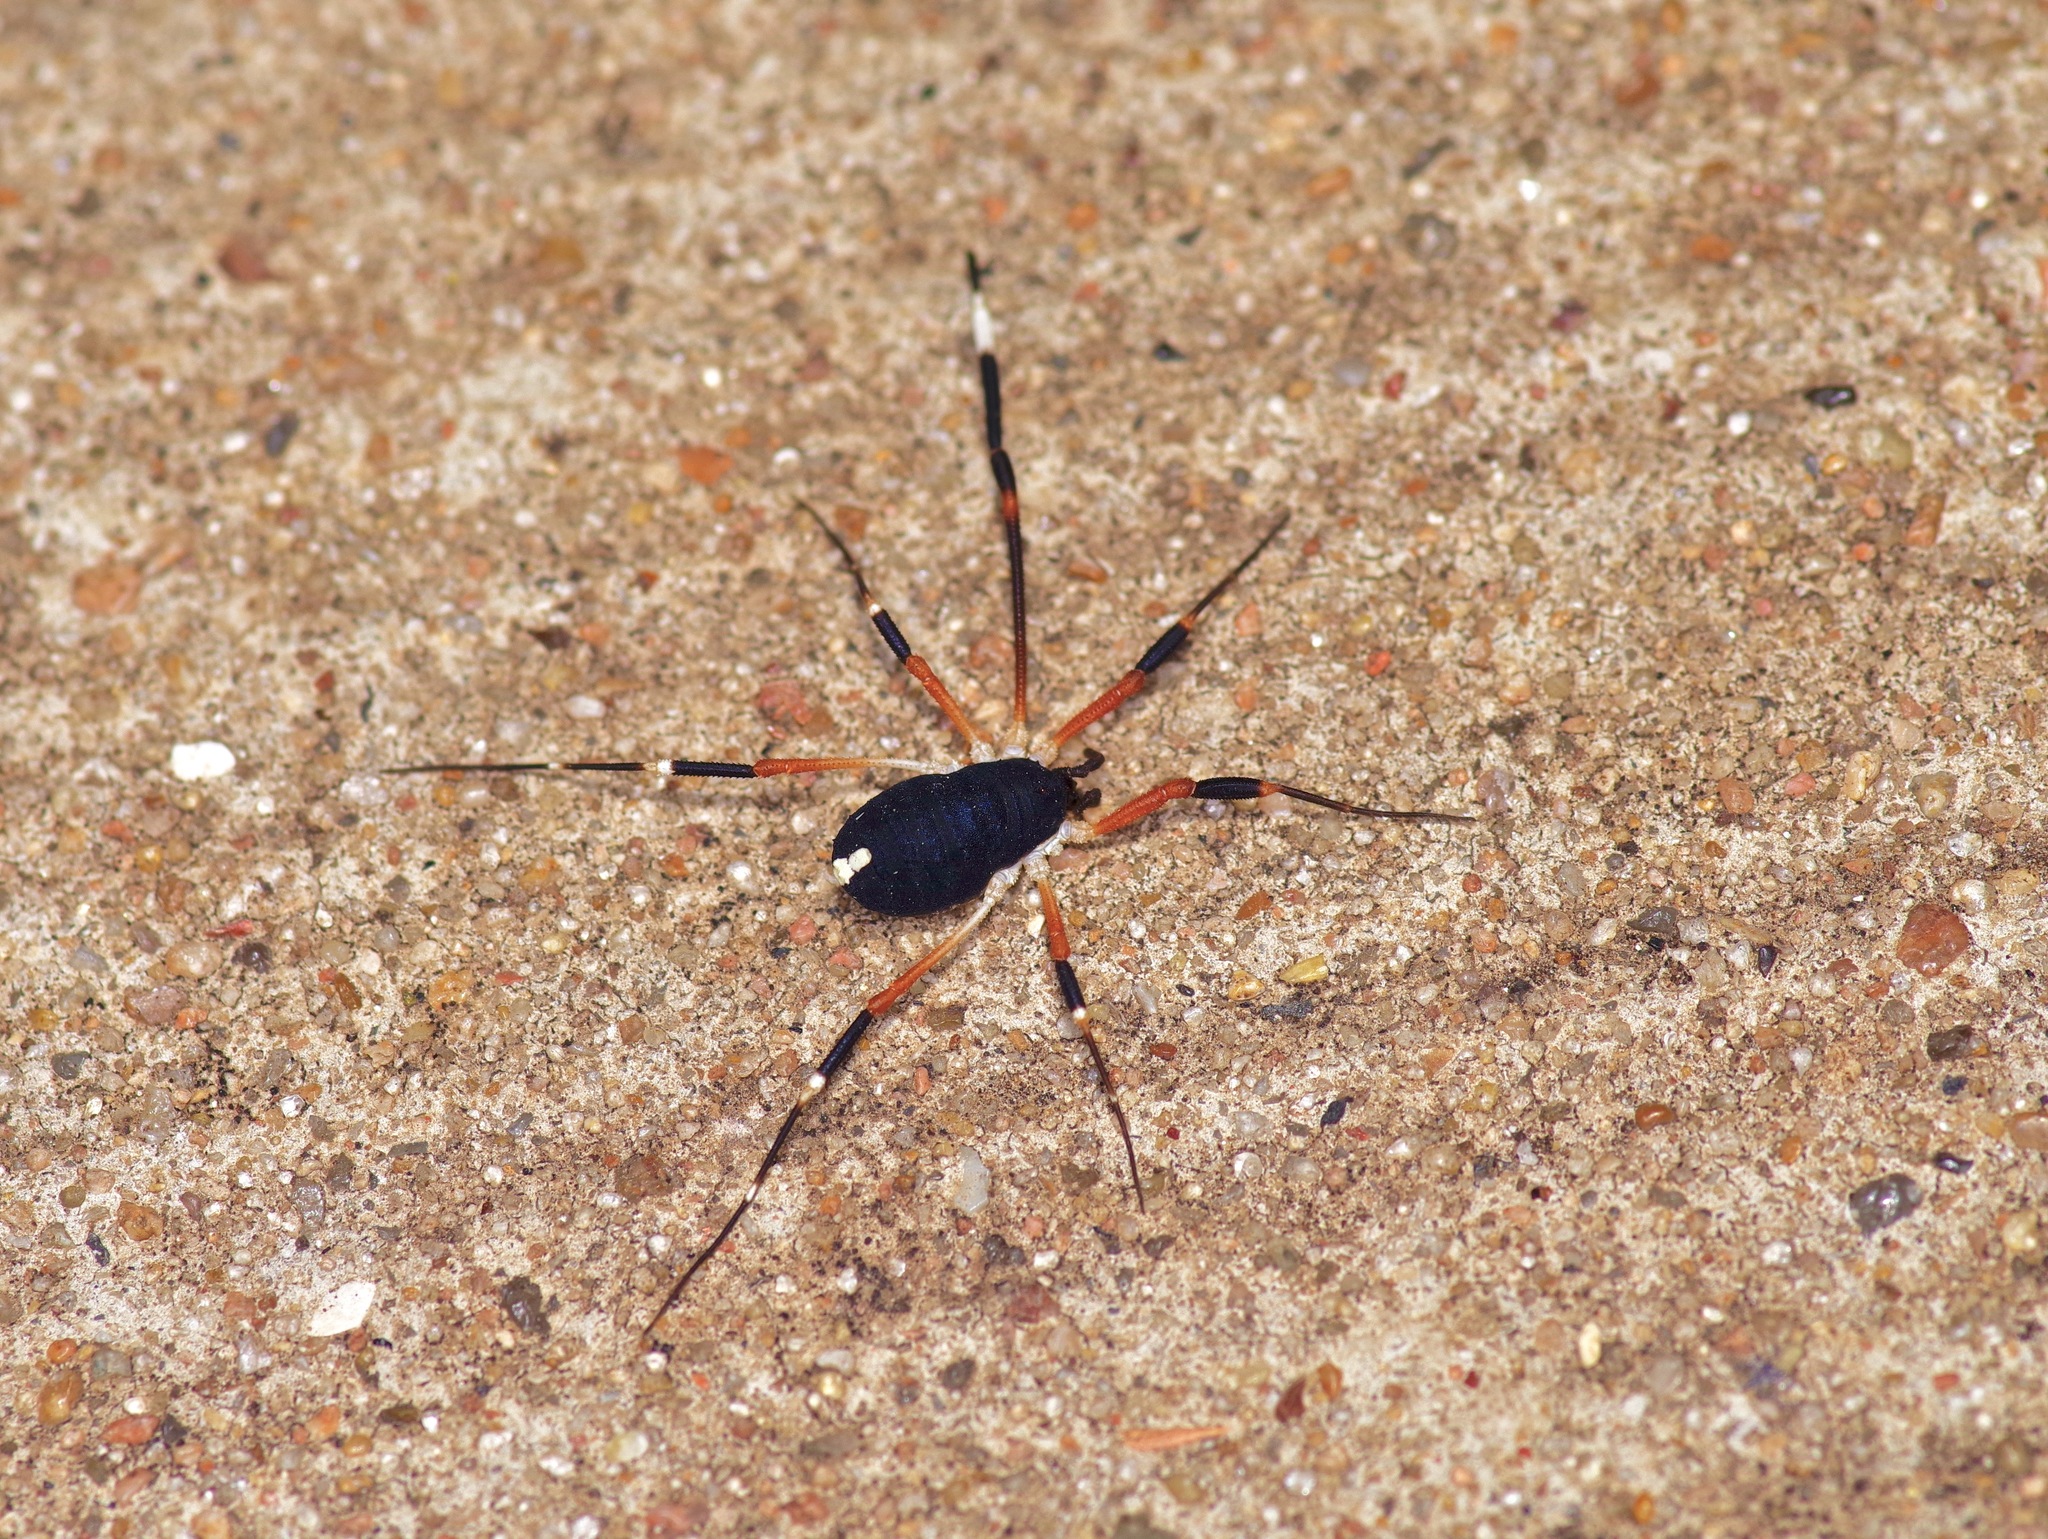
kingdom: Animalia
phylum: Arthropoda
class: Arachnida
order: Opiliones
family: Globipedidae
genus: Dalquestia
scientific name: Dalquestia formosa
